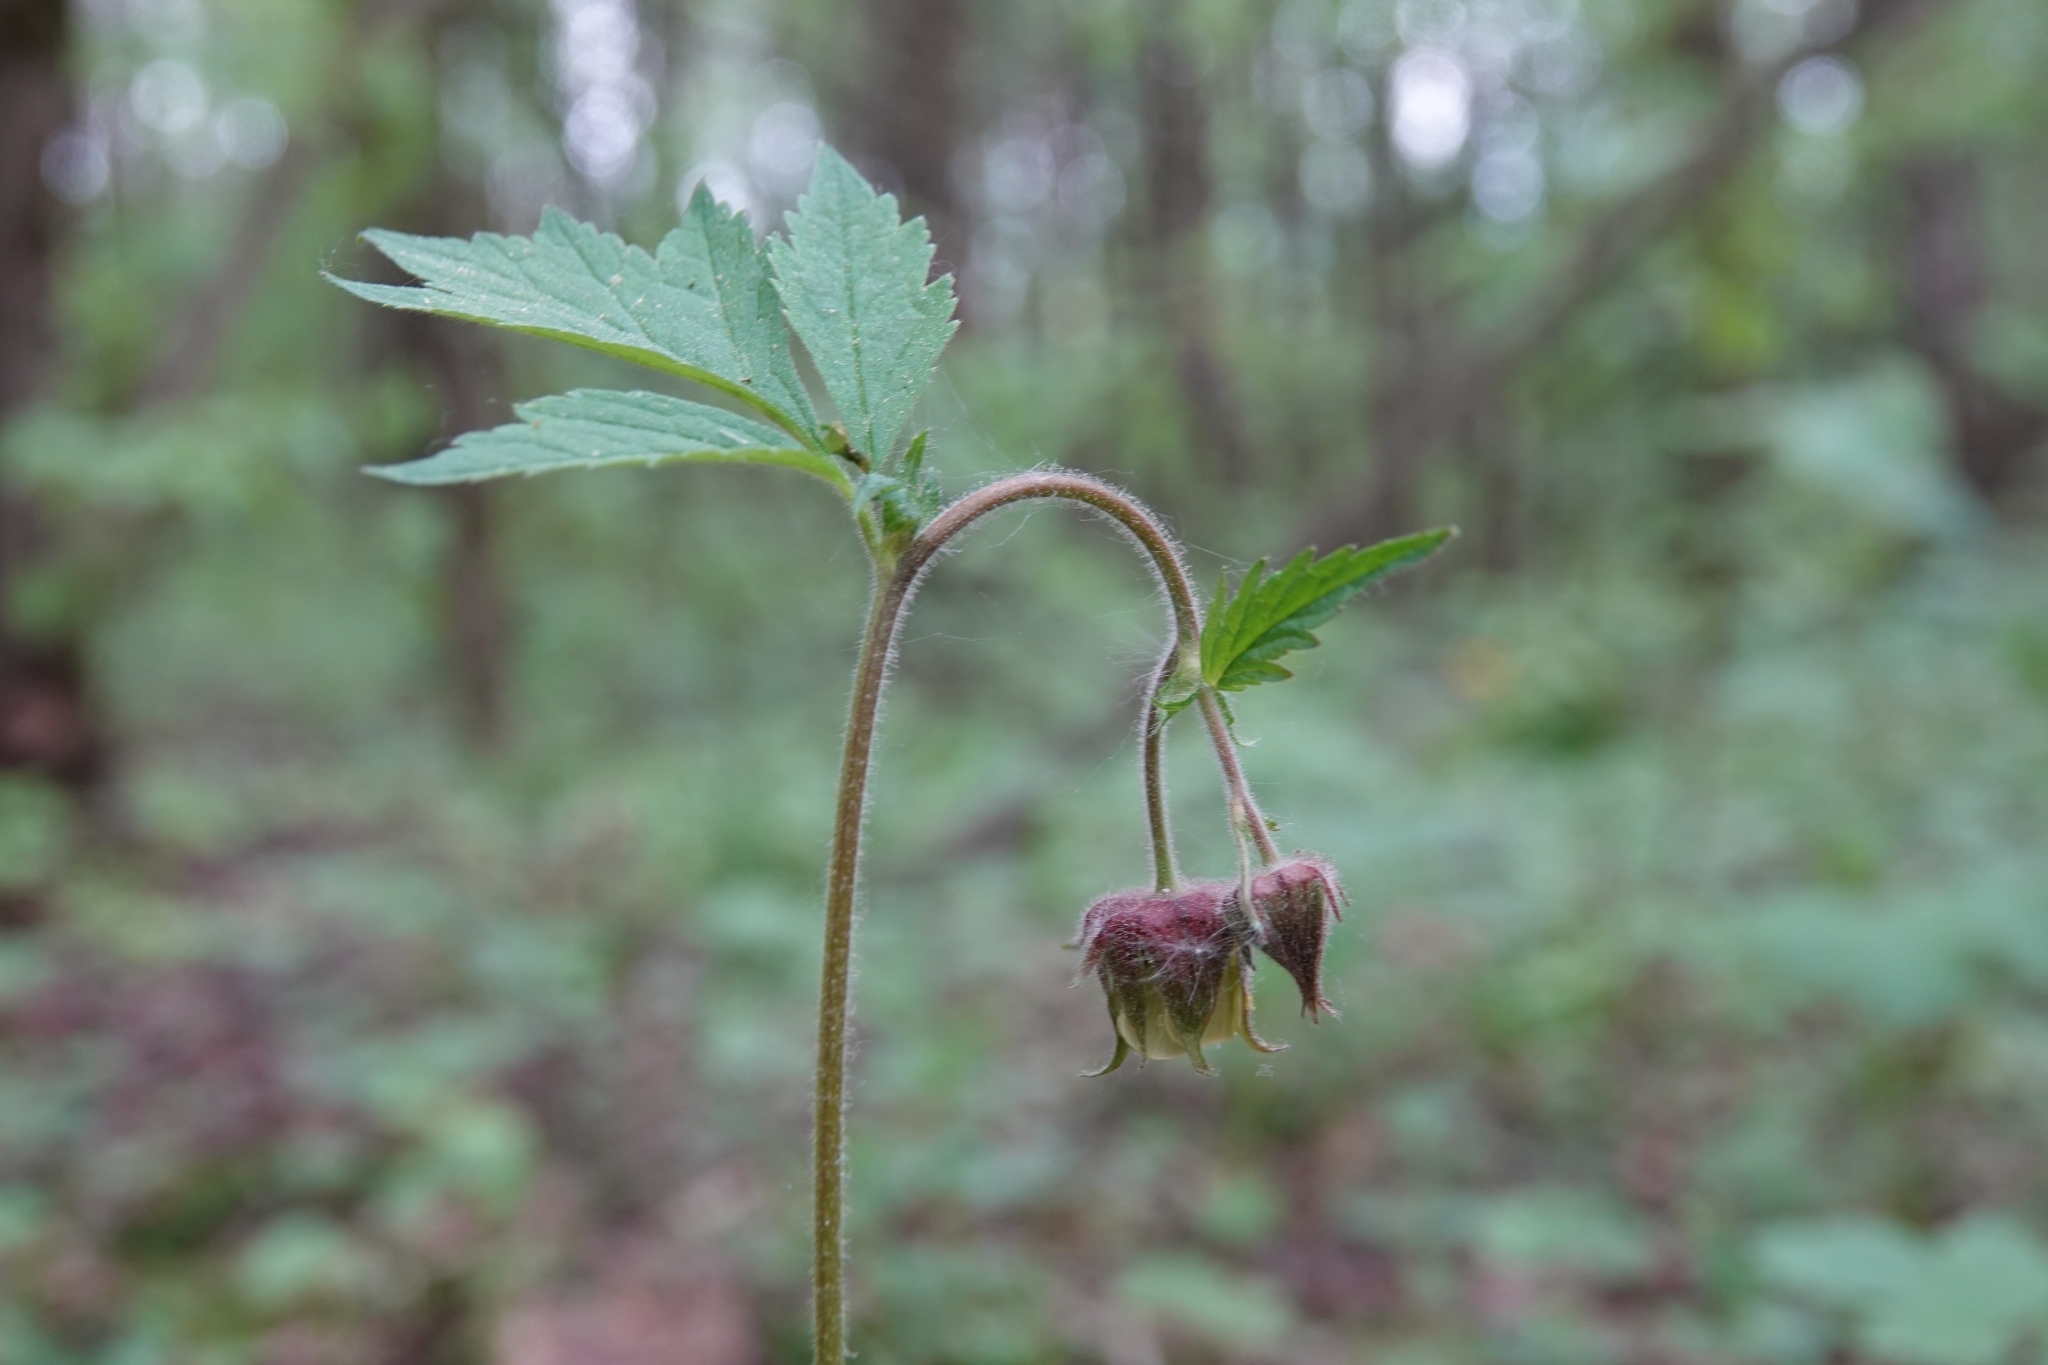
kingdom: Plantae
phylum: Tracheophyta
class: Magnoliopsida
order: Rosales
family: Rosaceae
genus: Geum
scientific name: Geum rivale
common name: Water avens
